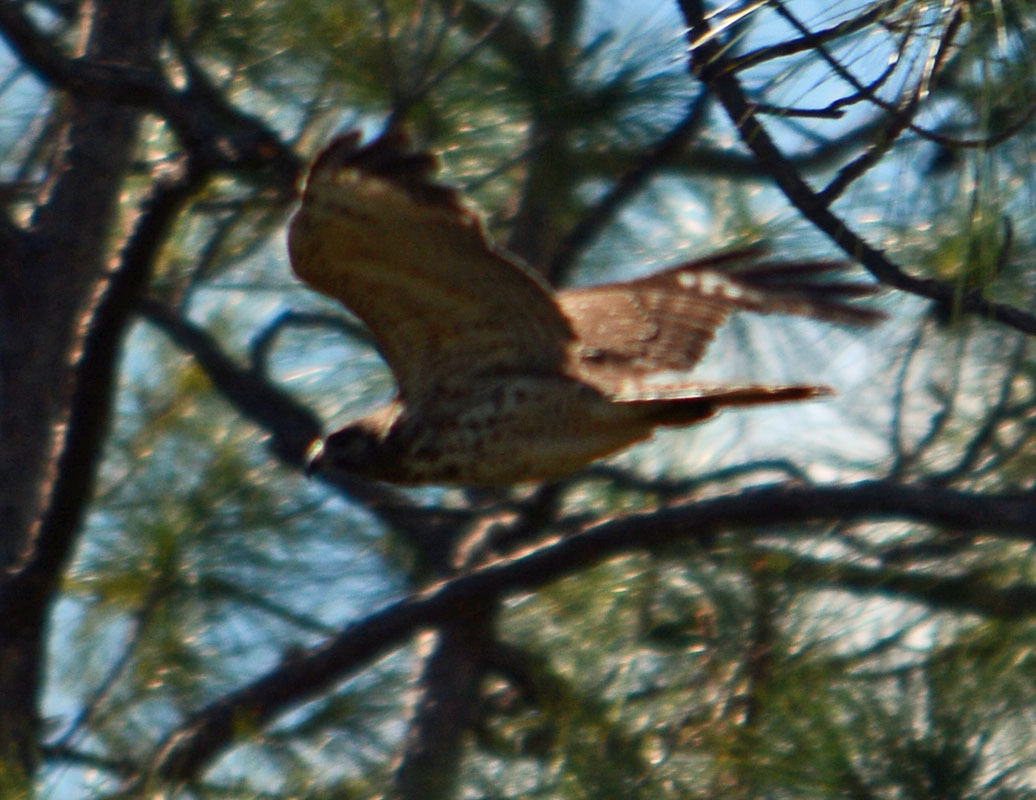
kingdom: Animalia
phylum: Chordata
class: Aves
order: Accipitriformes
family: Accipitridae
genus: Buteo
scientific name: Buteo lineatus
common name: Red-shouldered hawk
